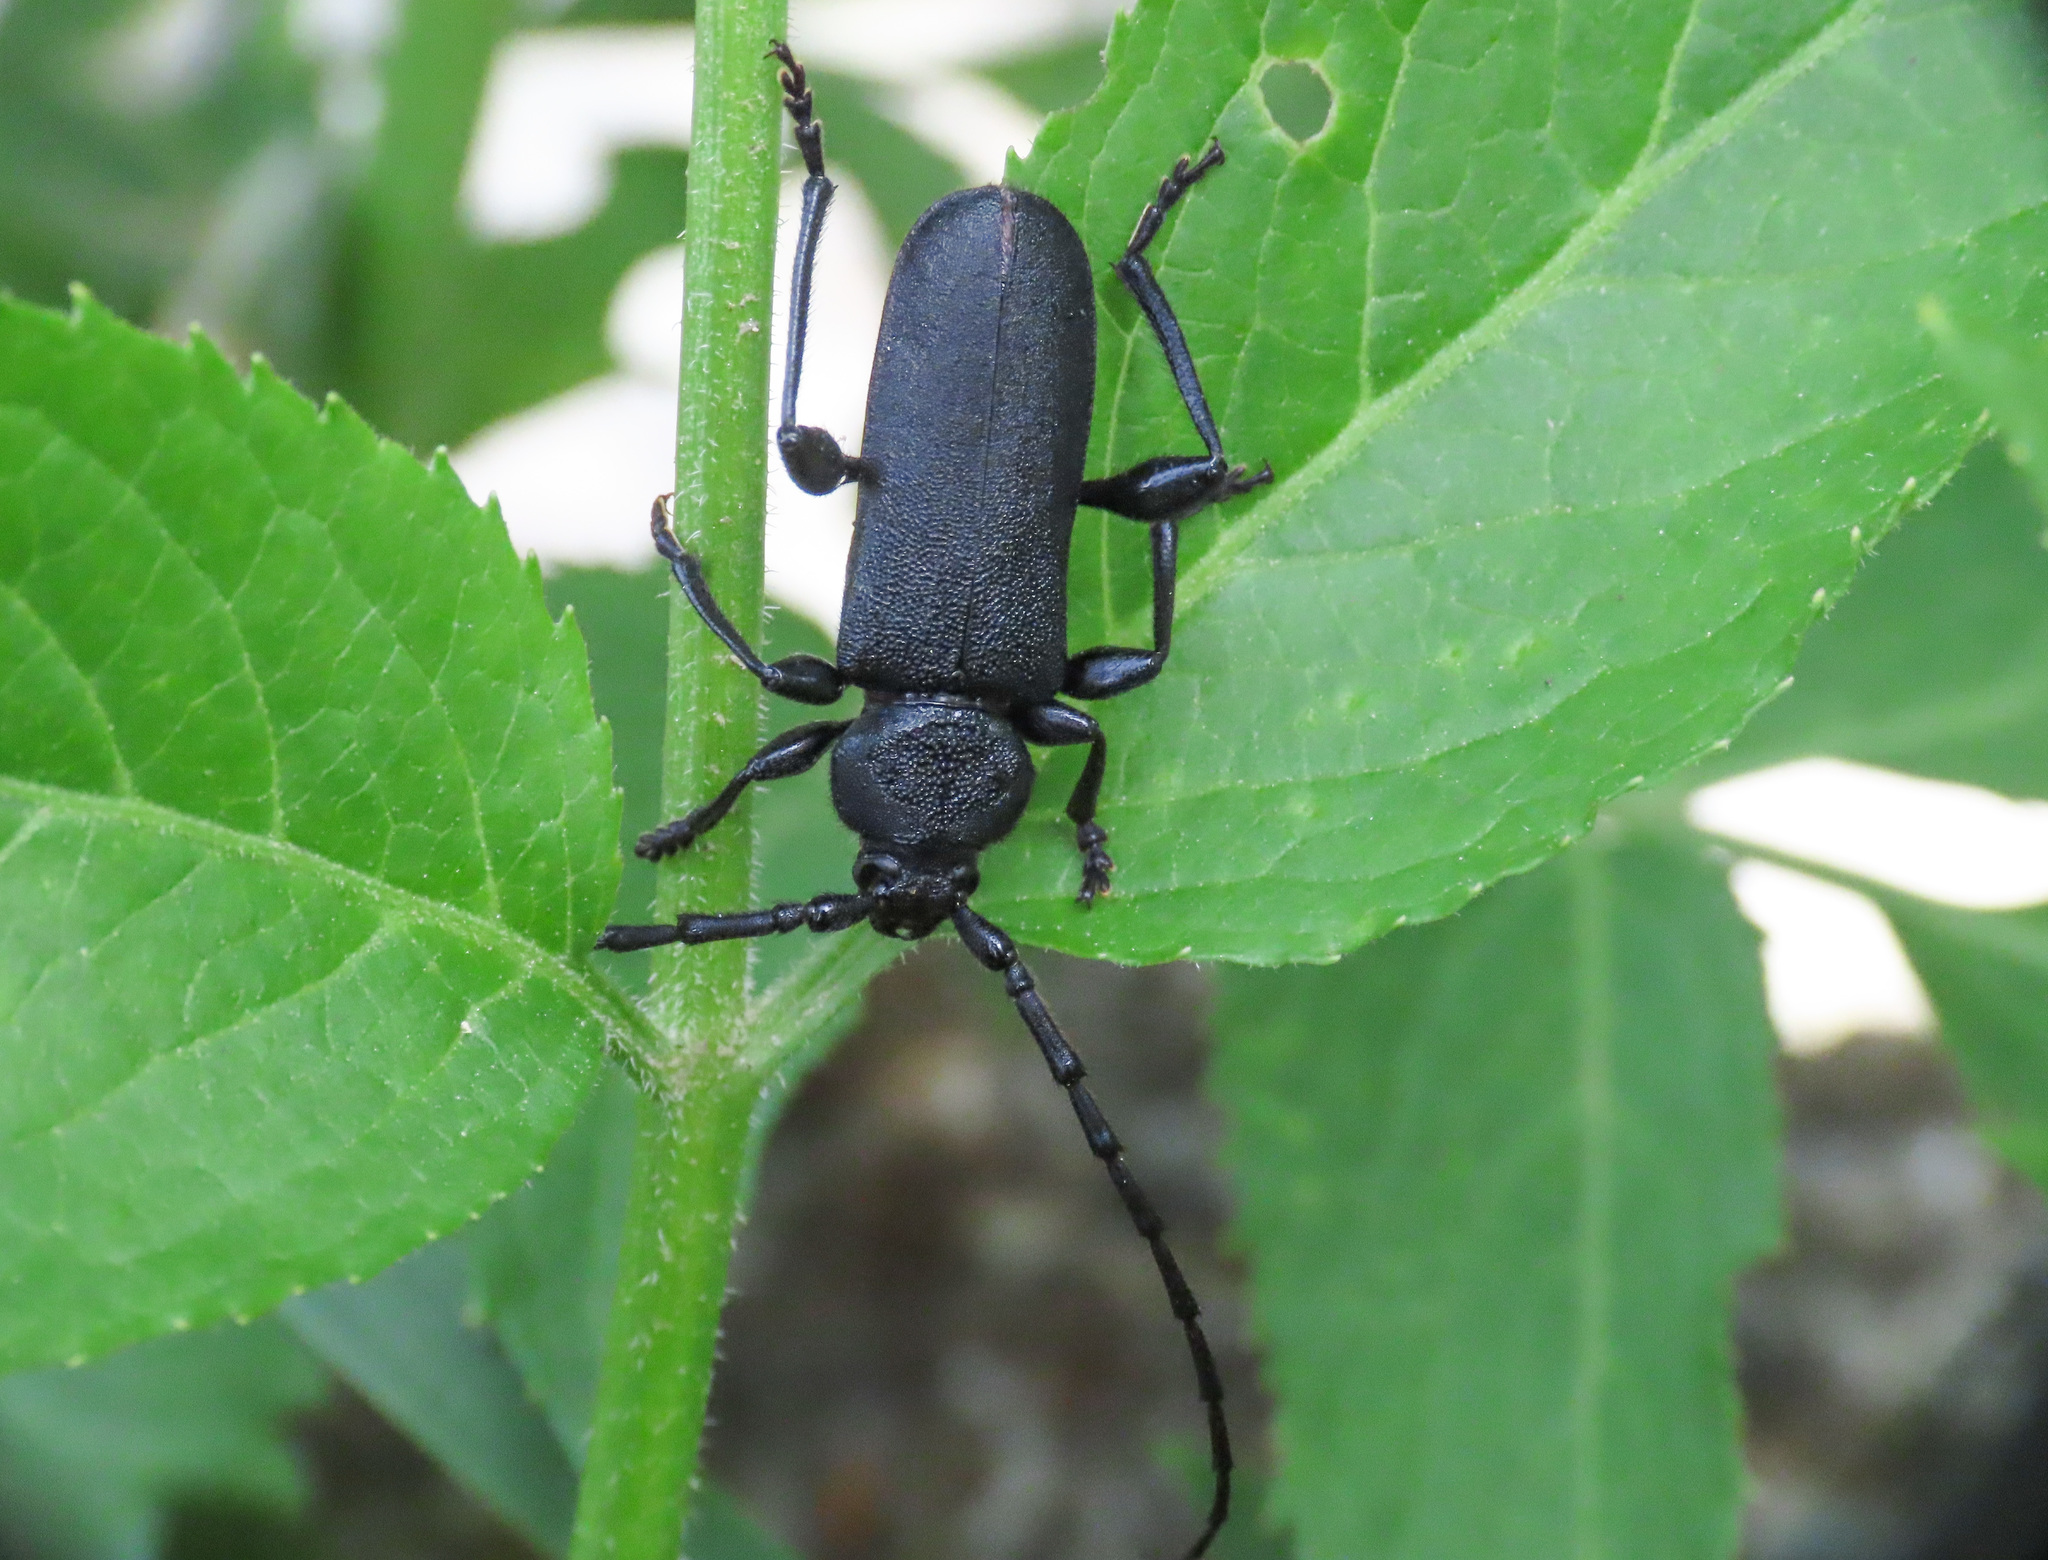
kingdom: Animalia
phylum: Arthropoda
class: Insecta
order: Coleoptera
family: Cerambycidae
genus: Ropalopus
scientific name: Ropalopus clavipes
